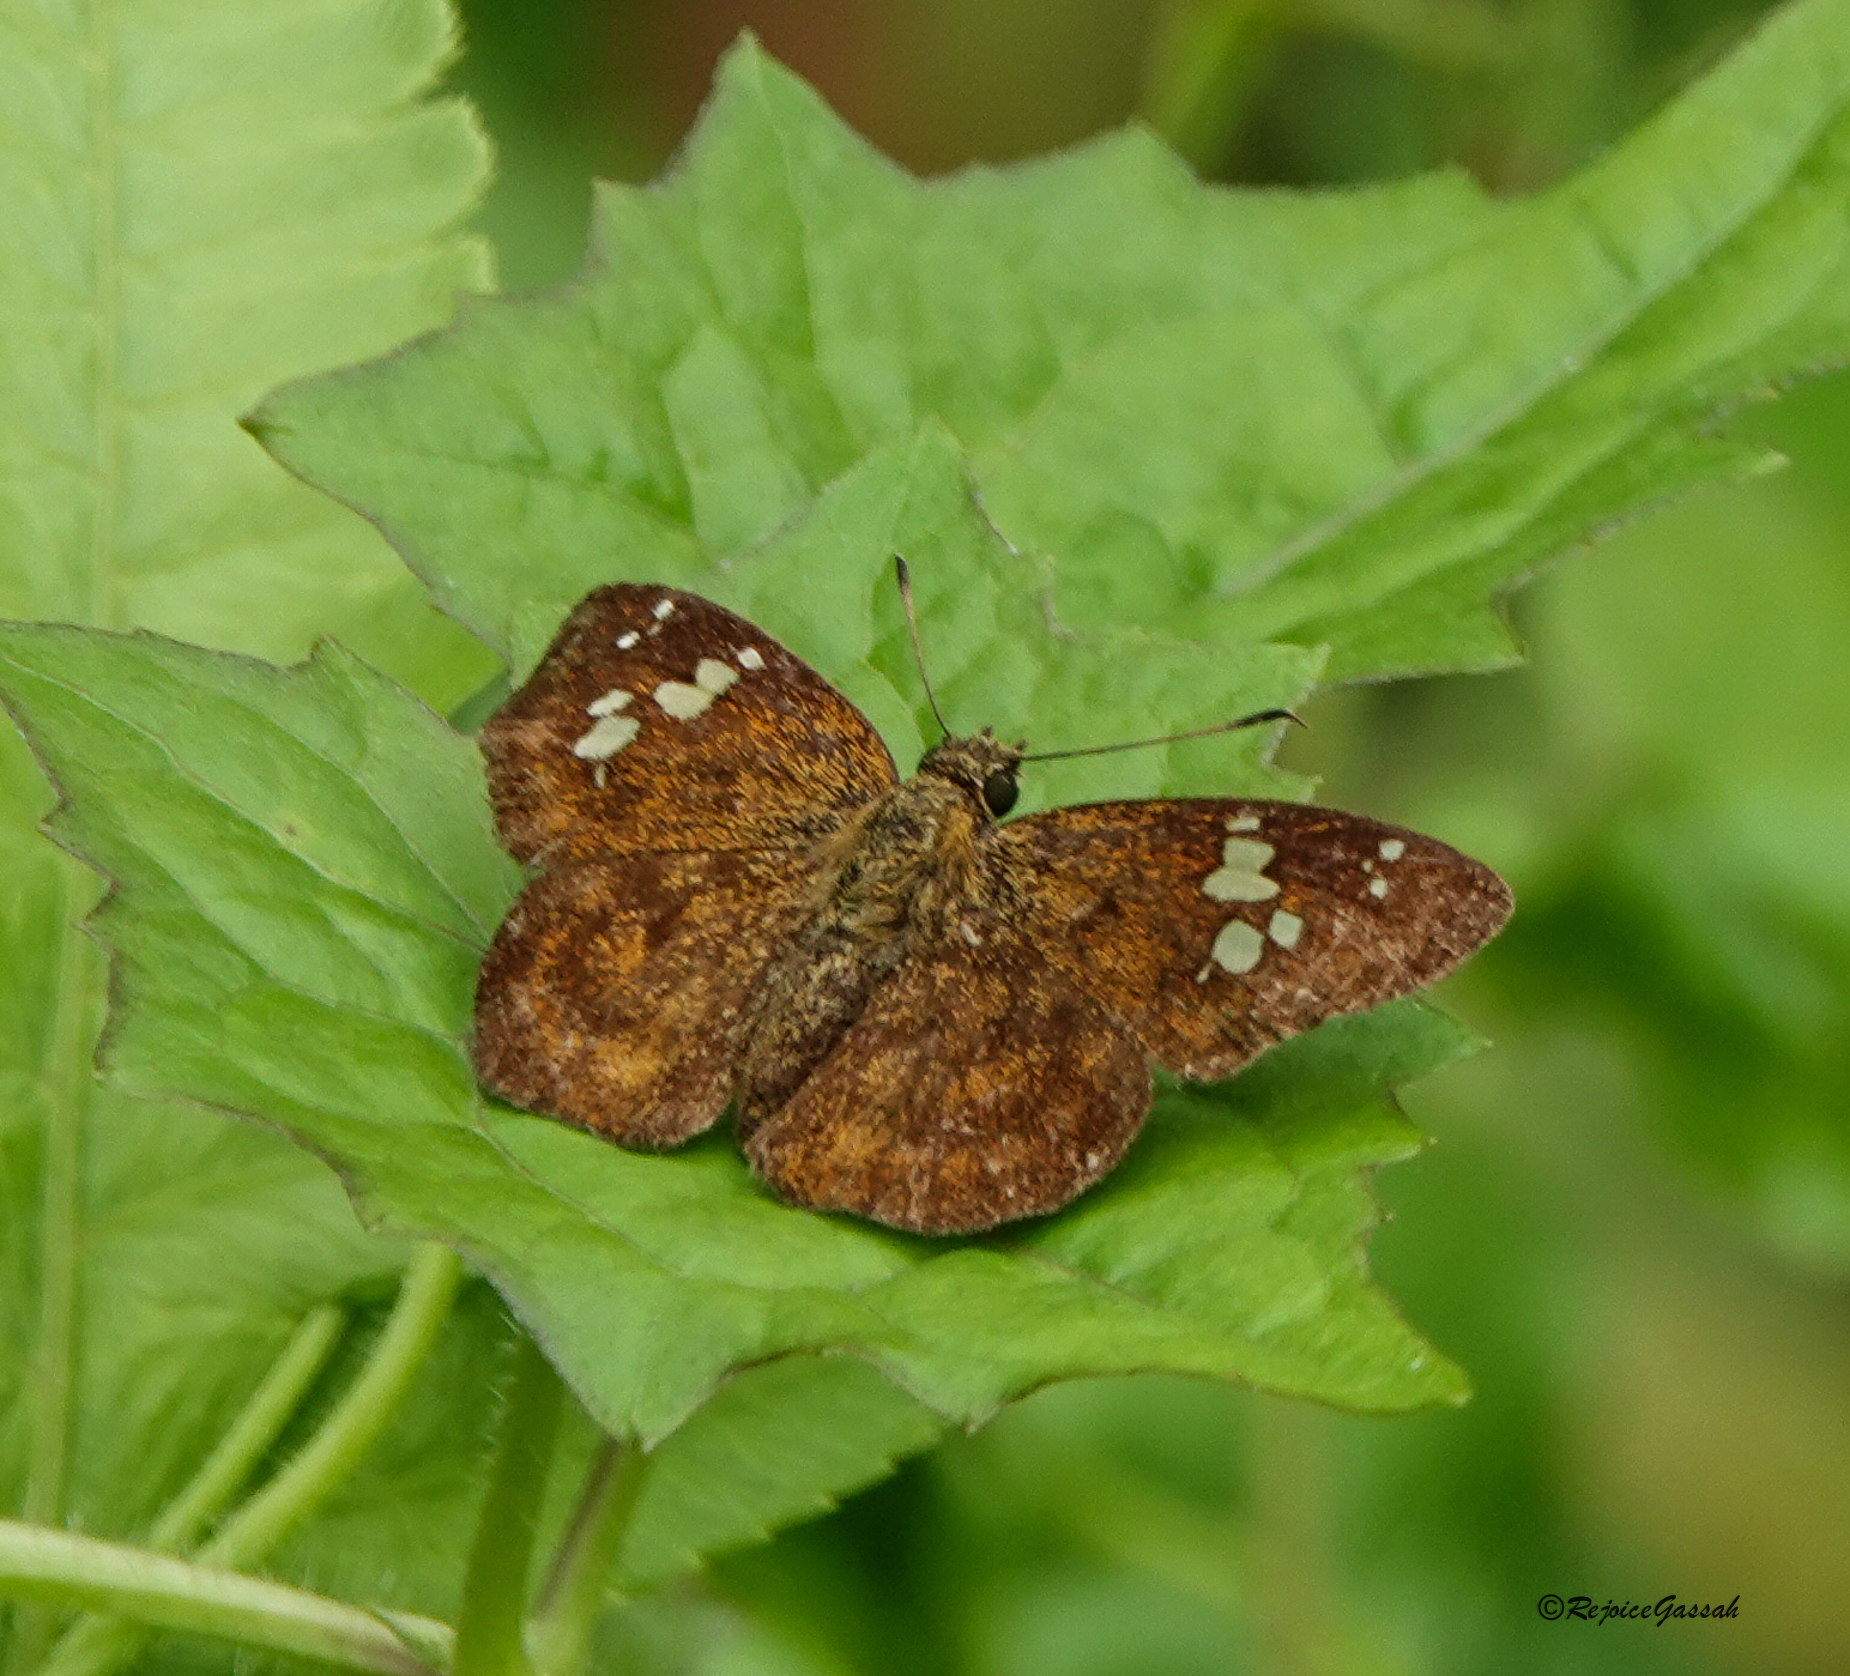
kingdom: Animalia
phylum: Arthropoda
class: Insecta
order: Lepidoptera
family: Hesperiidae
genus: Pseudocoladenia
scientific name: Pseudocoladenia dan
